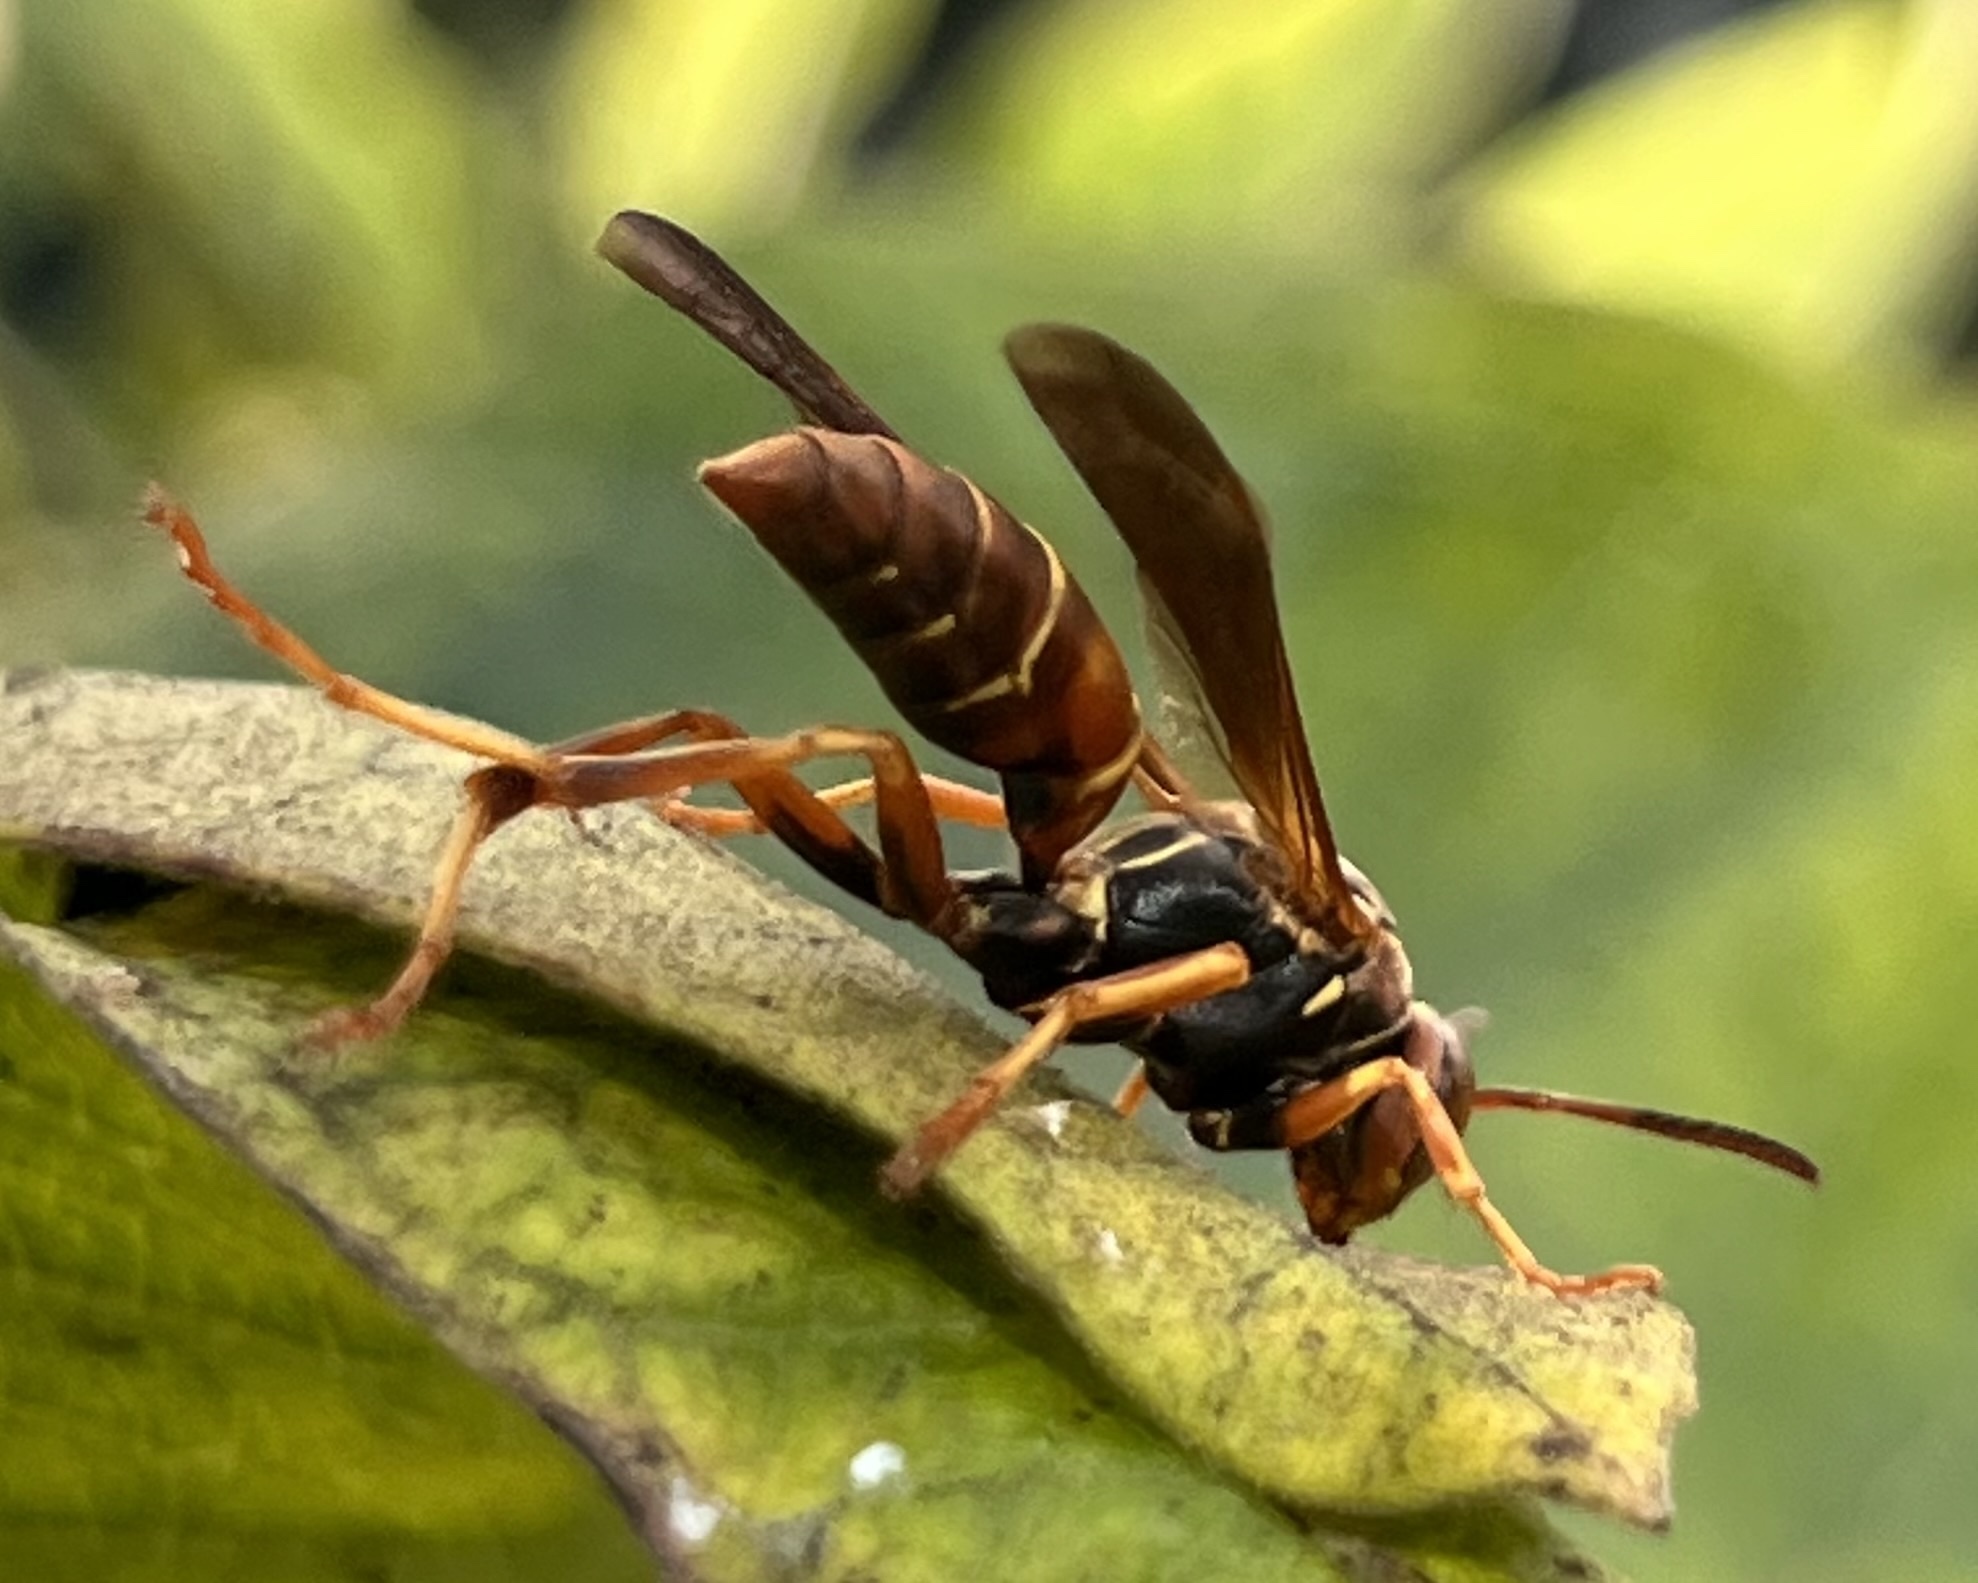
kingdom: Animalia
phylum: Arthropoda
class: Insecta
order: Hymenoptera
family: Eumenidae
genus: Polistes
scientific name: Polistes fuscatus
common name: Dark paper wasp
